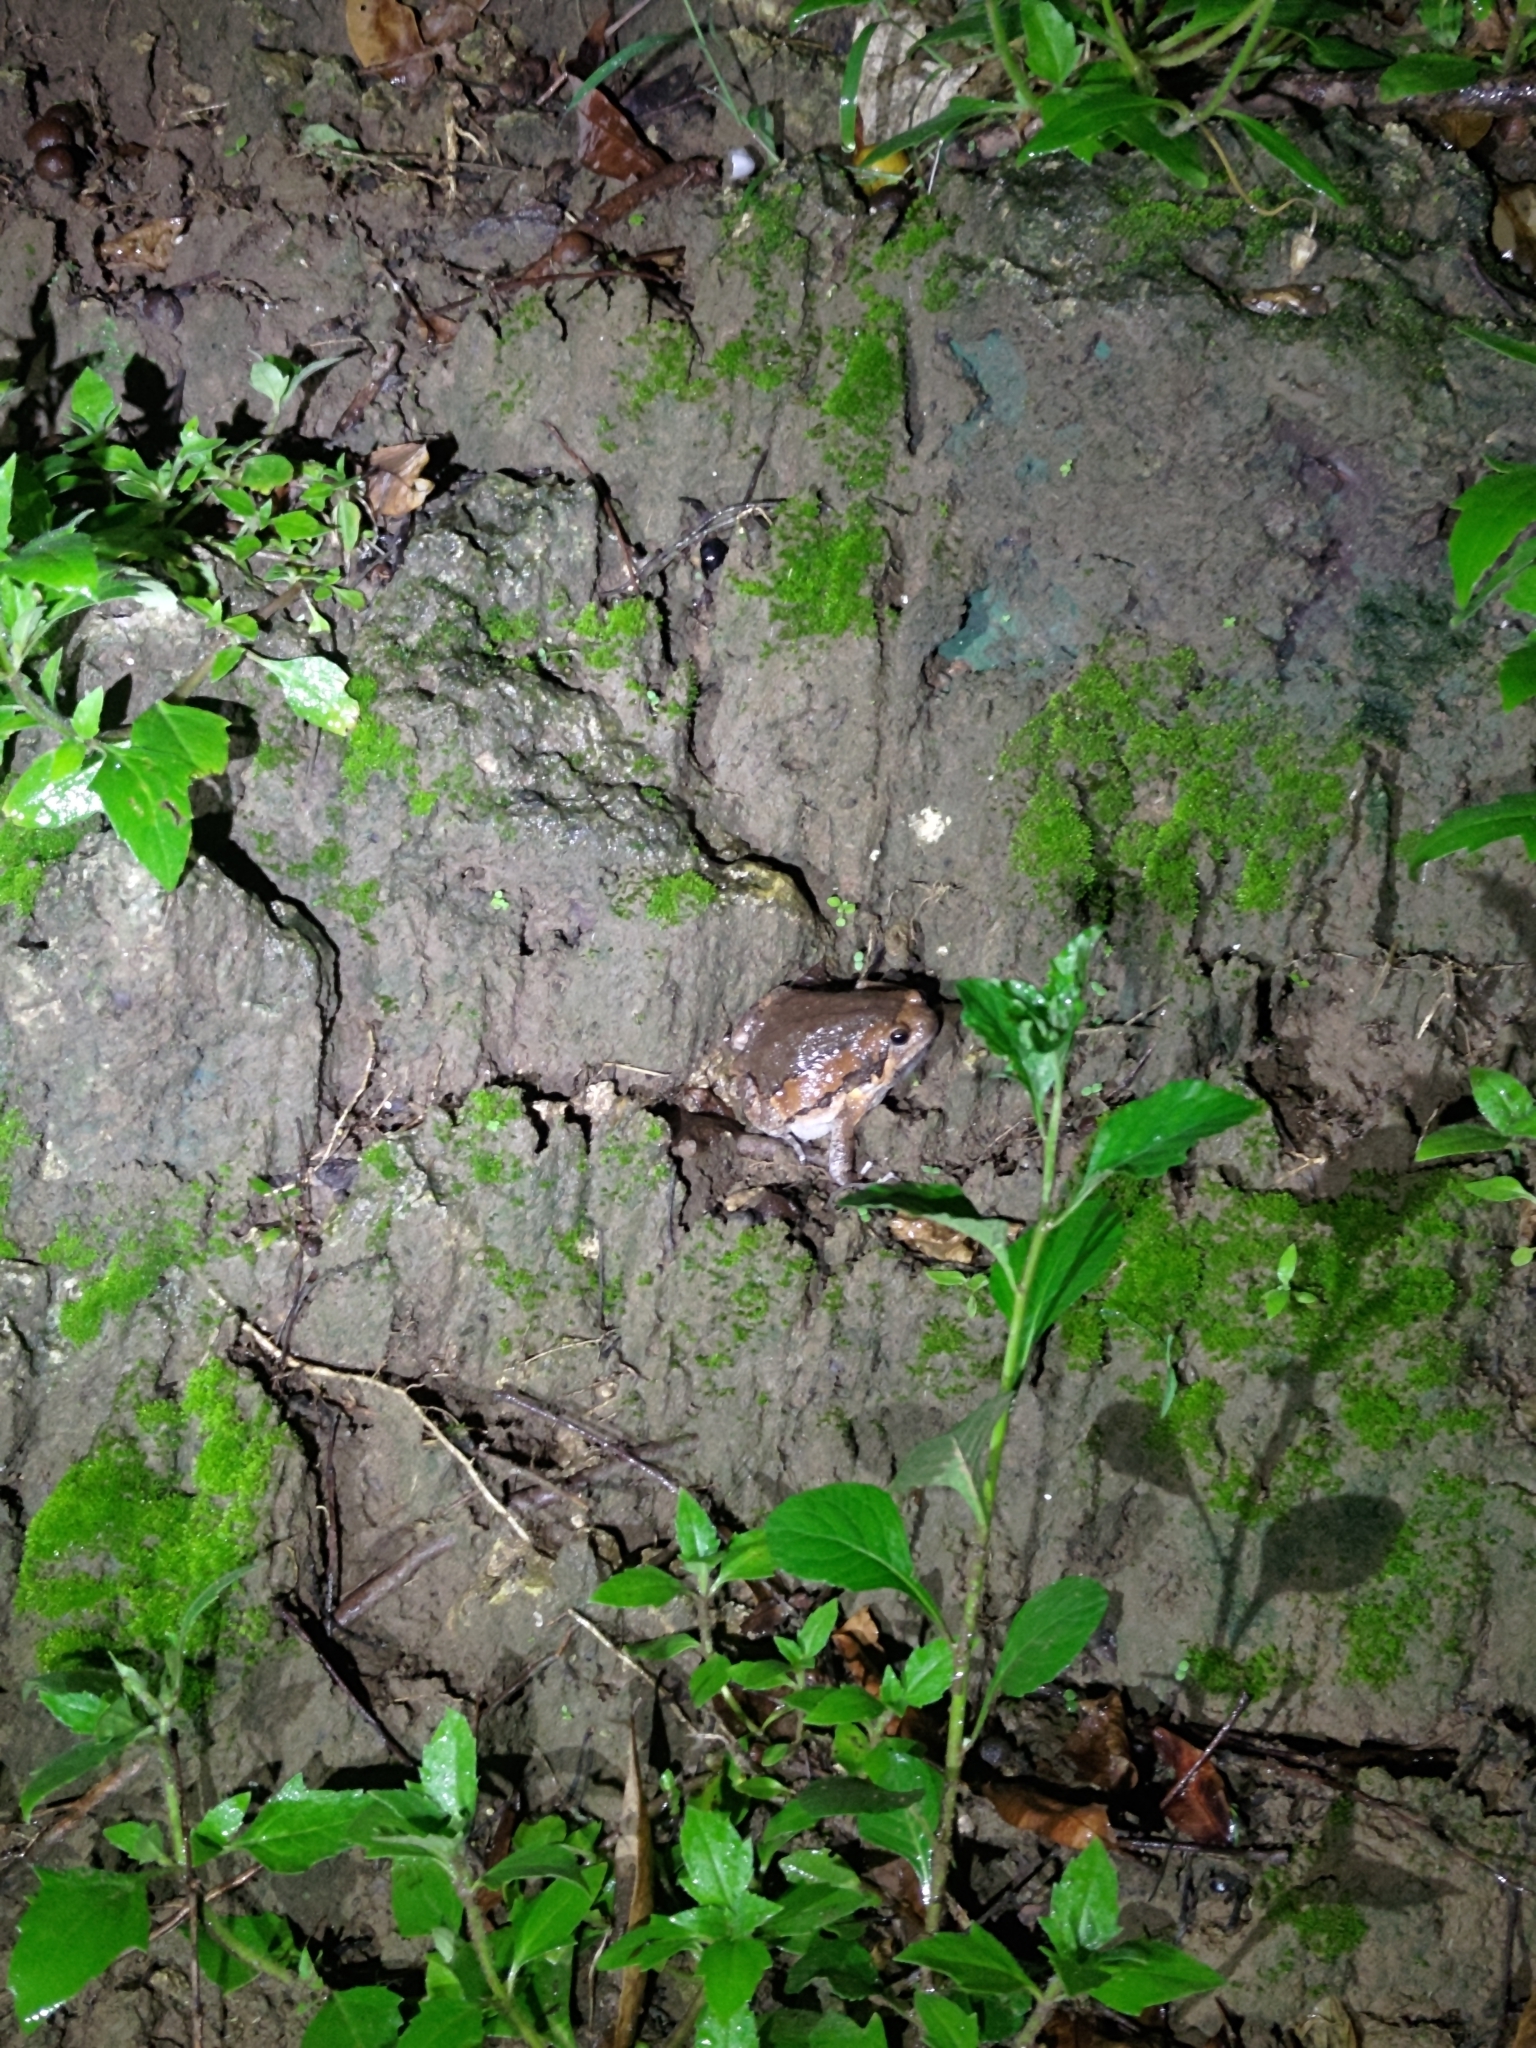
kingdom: Animalia
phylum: Chordata
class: Amphibia
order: Anura
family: Microhylidae
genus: Kaloula
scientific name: Kaloula pulchra
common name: Common,banded bullfrog
